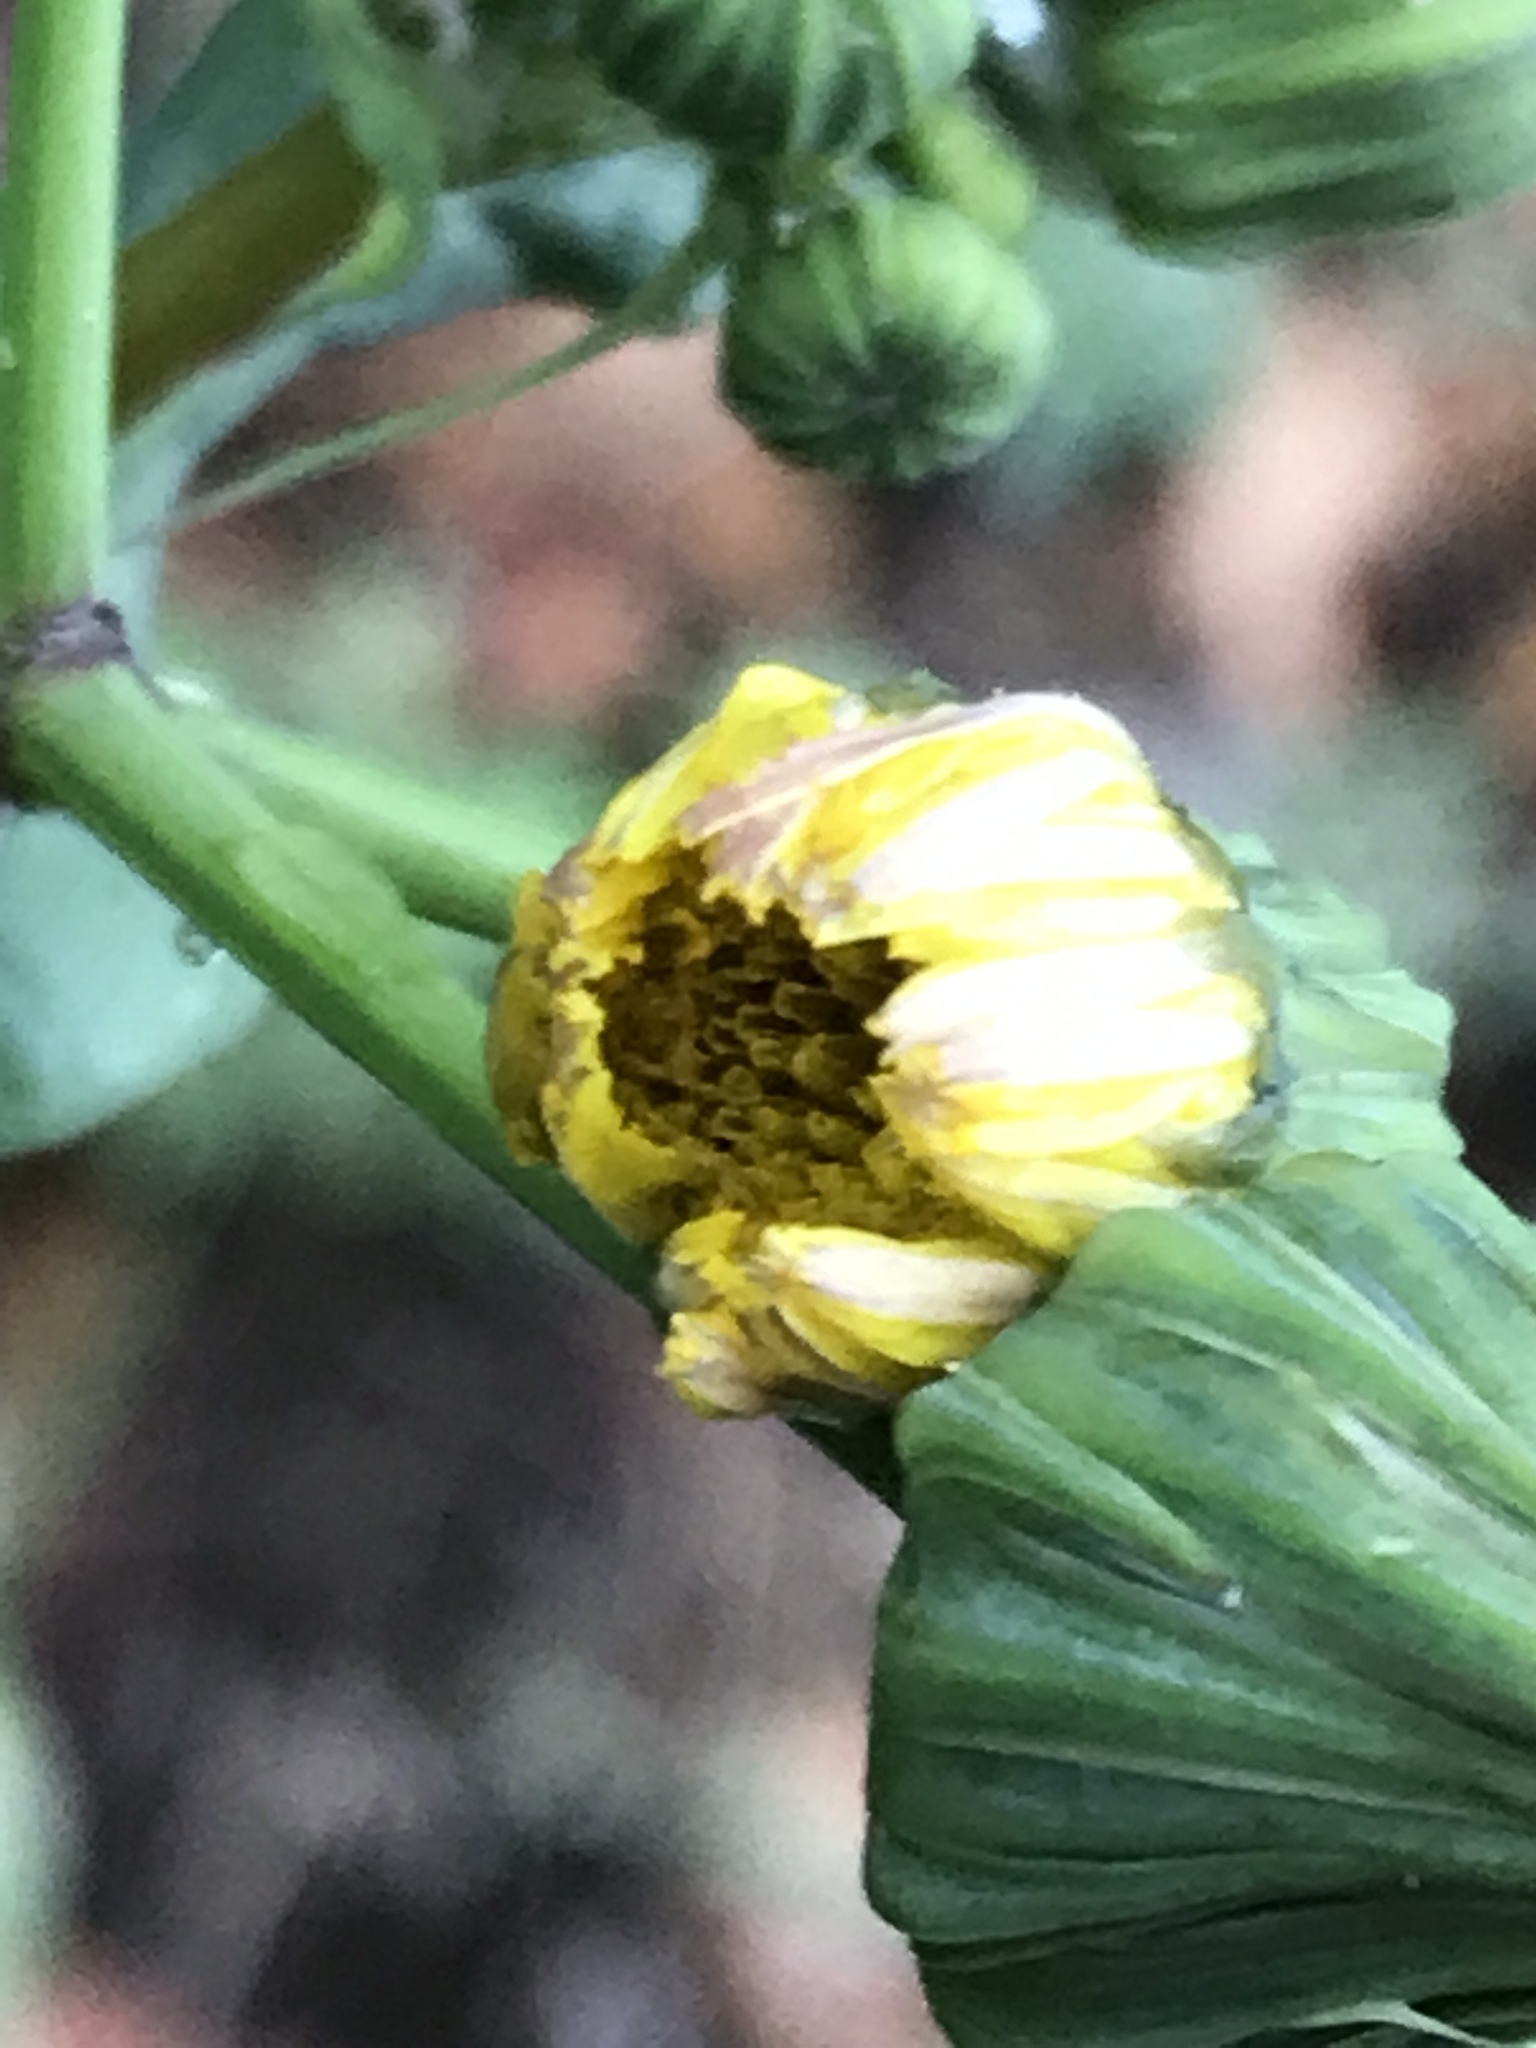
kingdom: Plantae
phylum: Tracheophyta
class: Magnoliopsida
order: Asterales
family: Asteraceae
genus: Sonchus
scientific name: Sonchus oleraceus
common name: Common sowthistle
